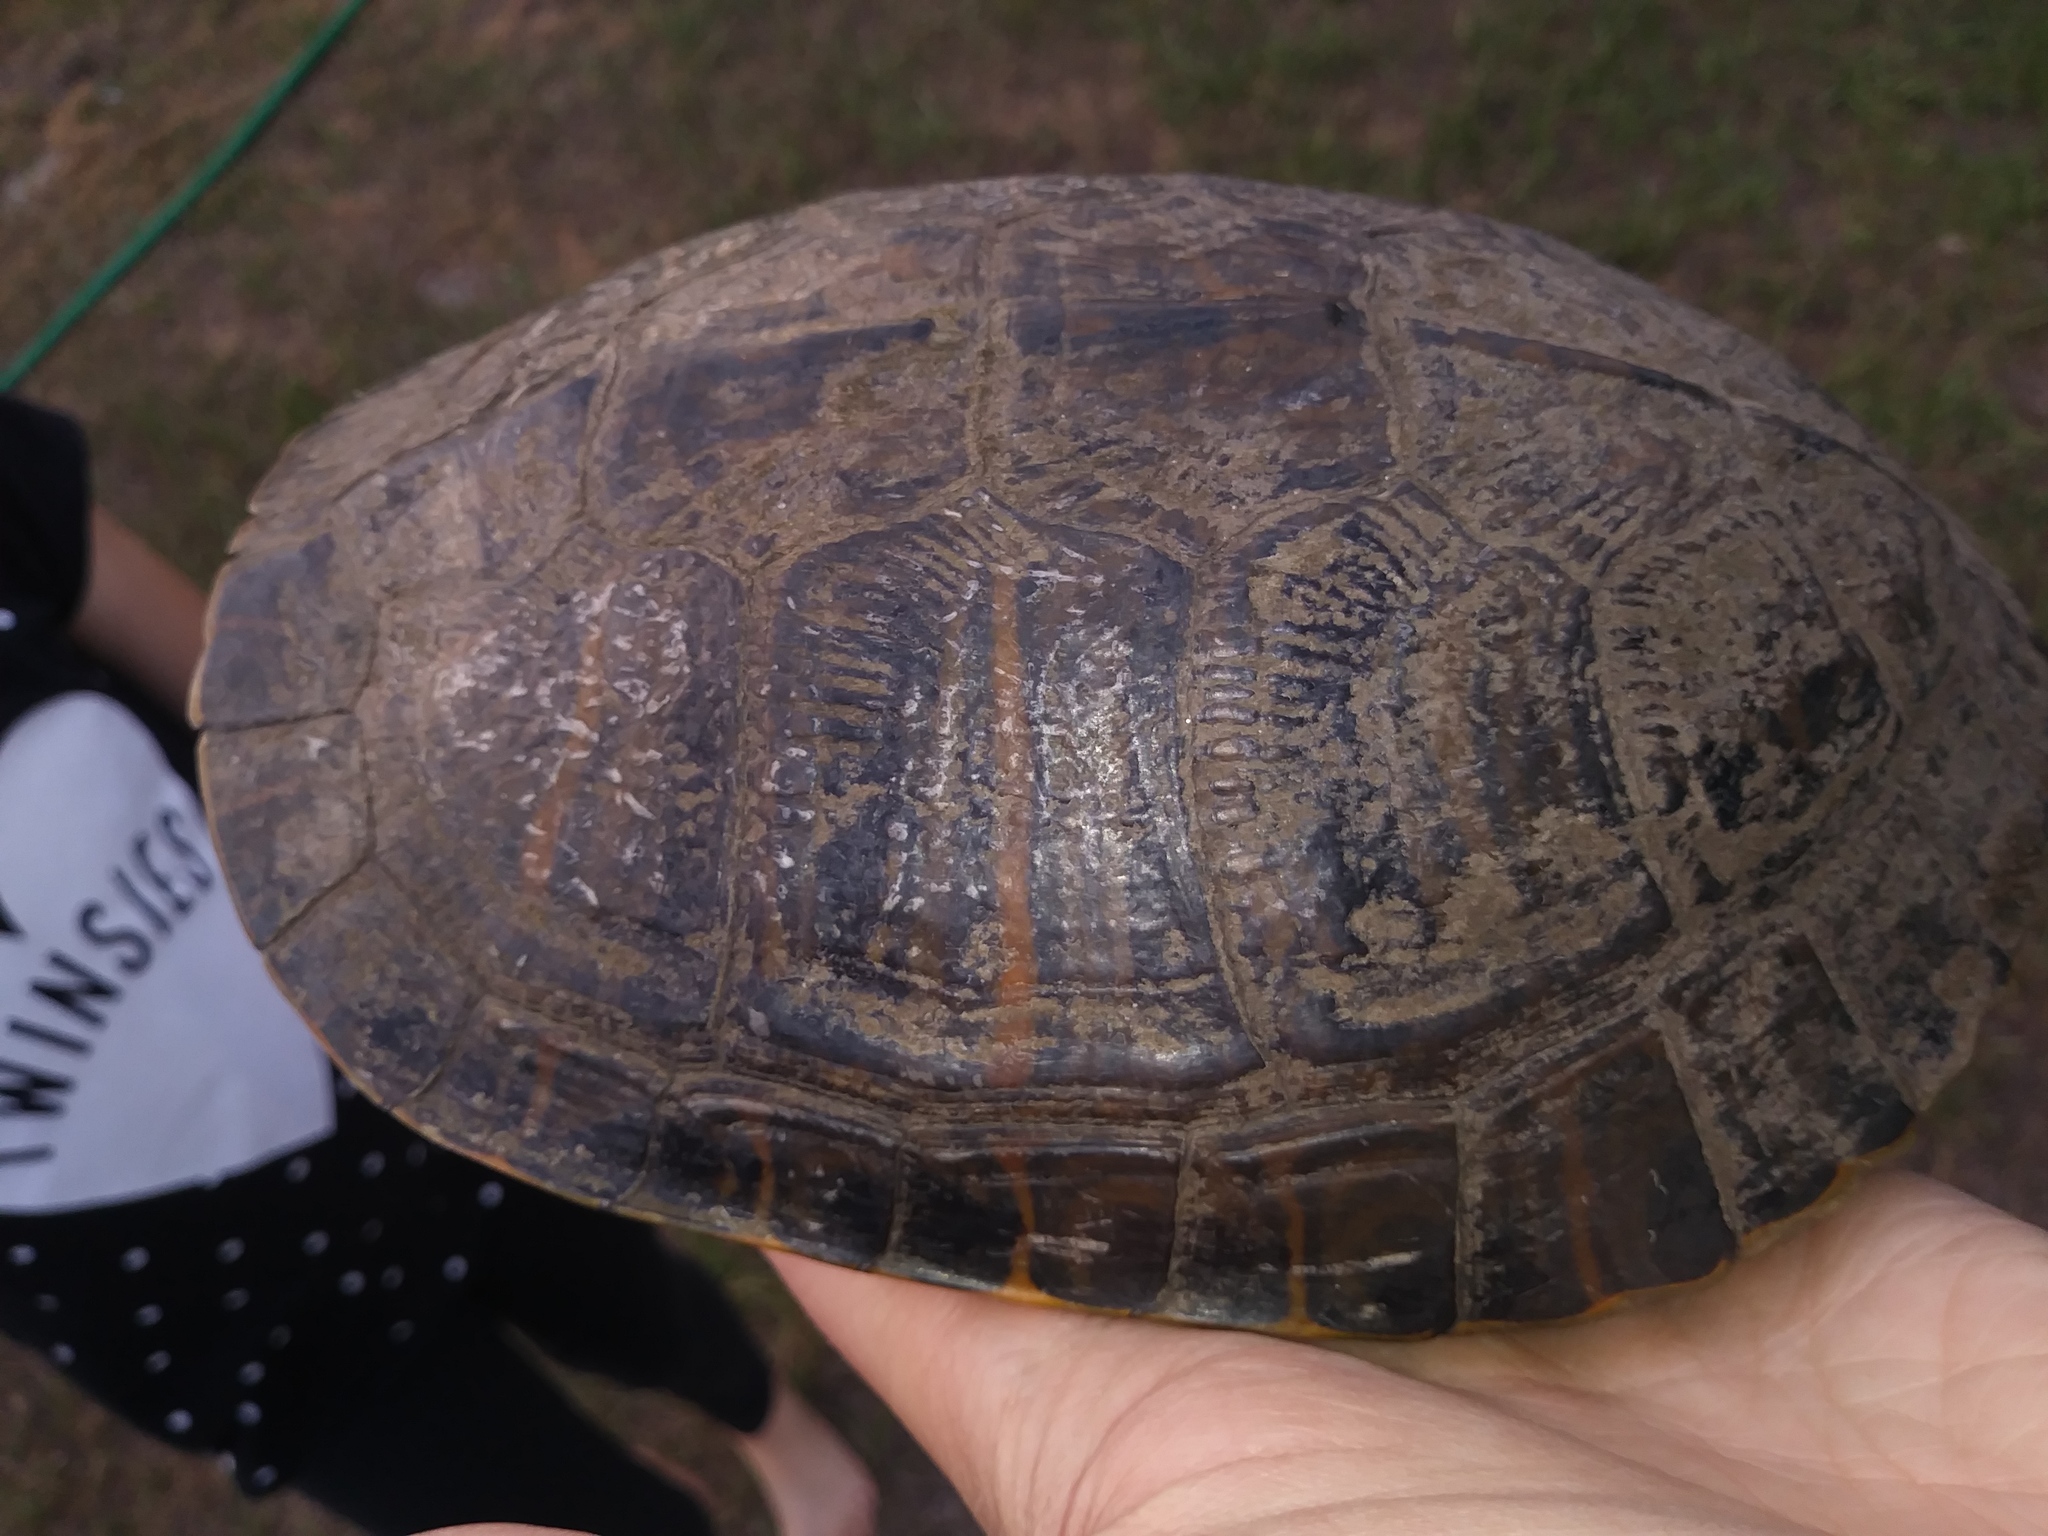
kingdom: Animalia
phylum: Chordata
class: Testudines
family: Emydidae
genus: Trachemys
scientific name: Trachemys scripta
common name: Slider
